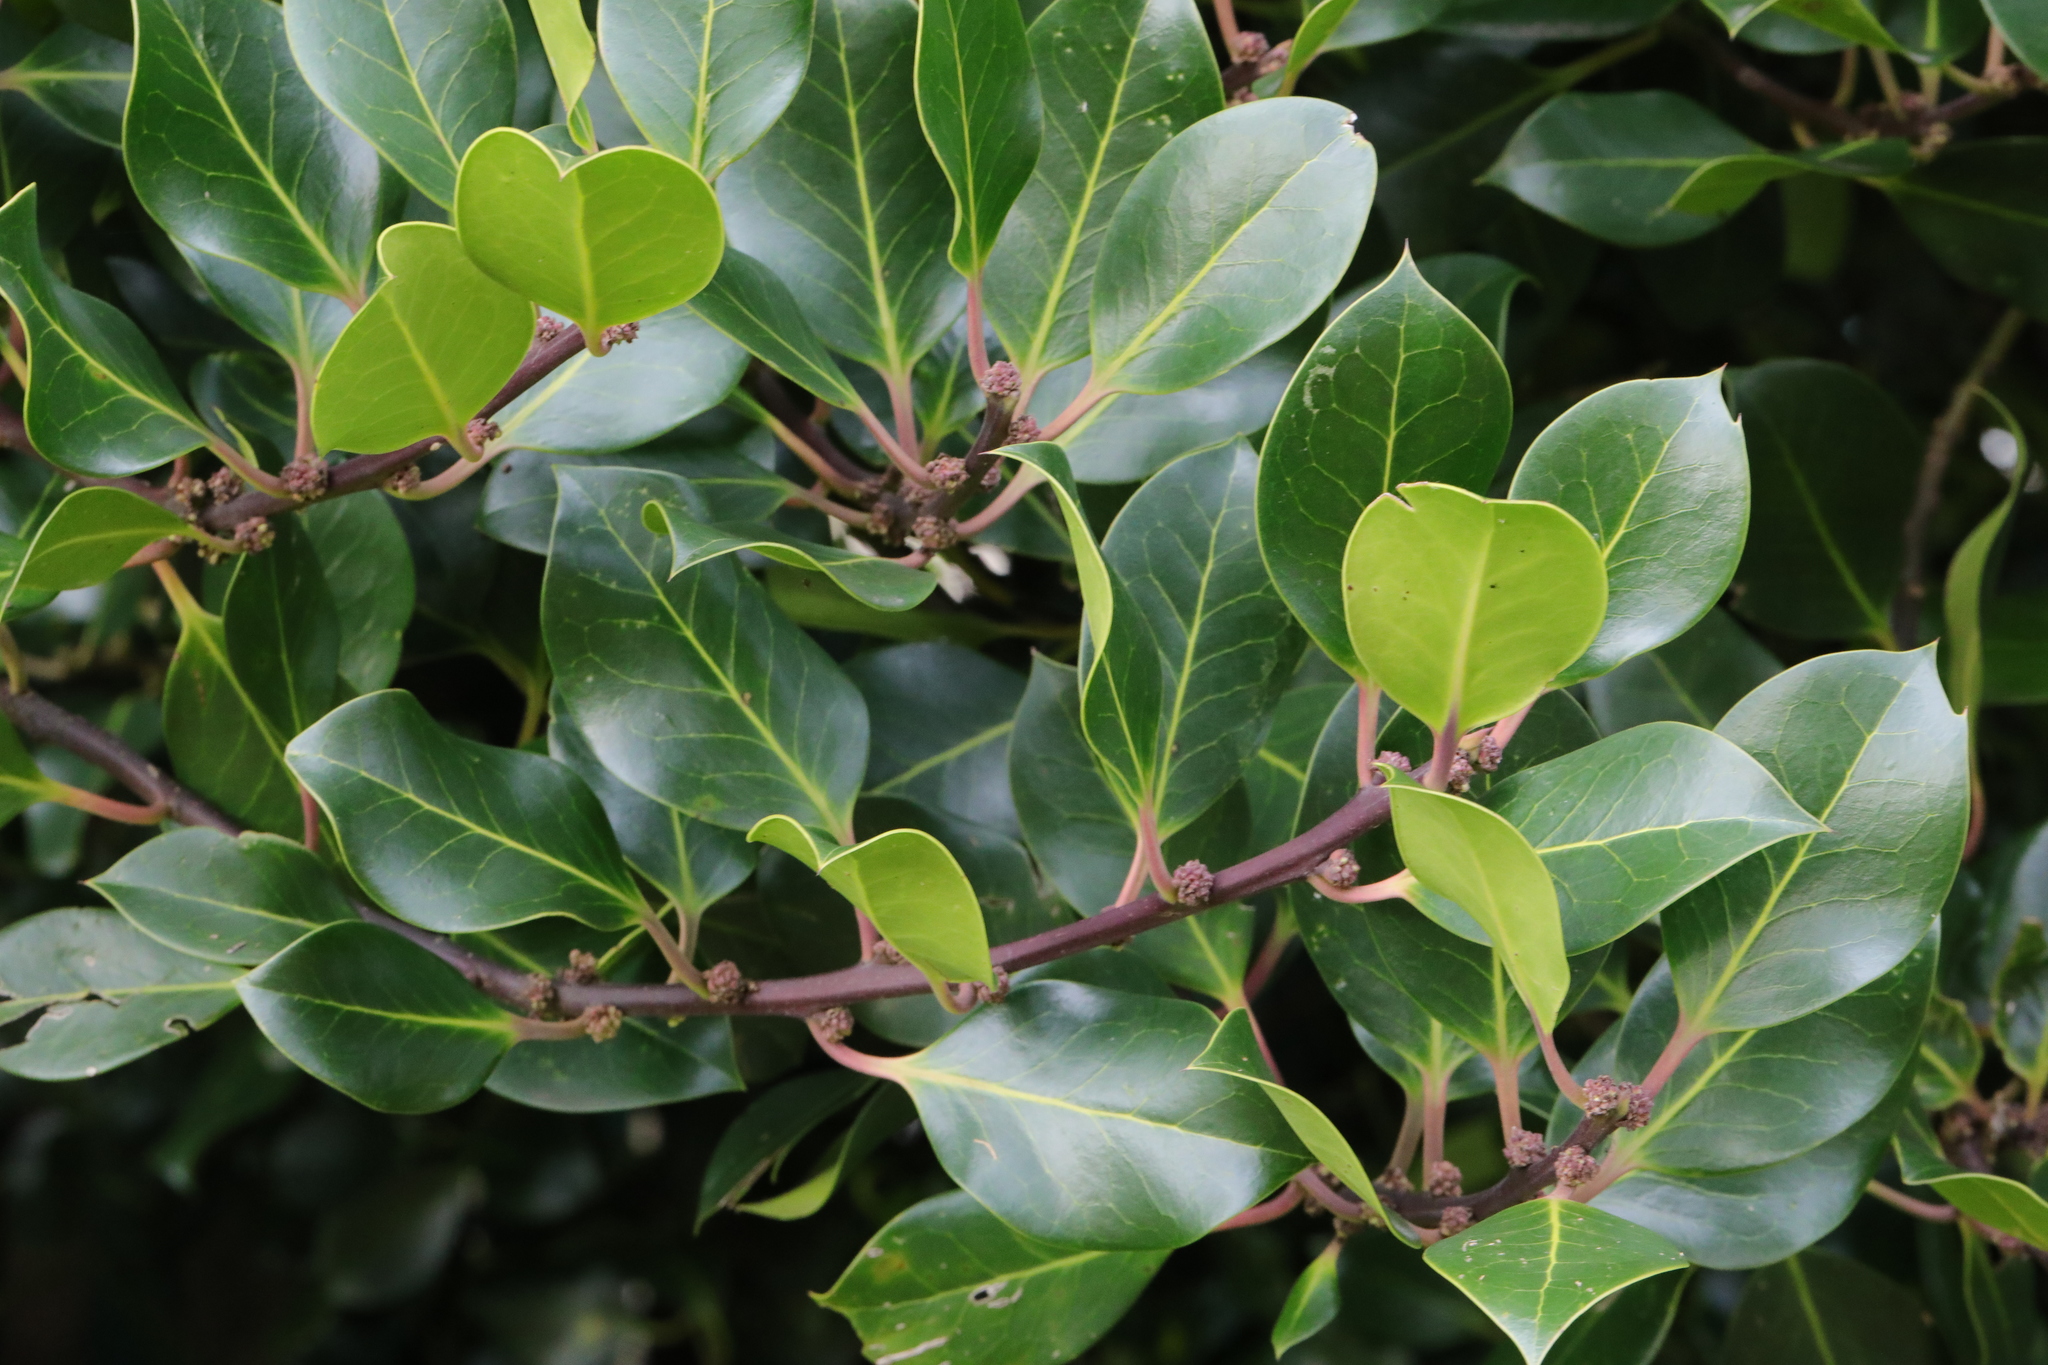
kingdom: Plantae
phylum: Tracheophyta
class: Magnoliopsida
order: Aquifoliales
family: Aquifoliaceae
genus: Ilex
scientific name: Ilex aquifolium
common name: English holly
